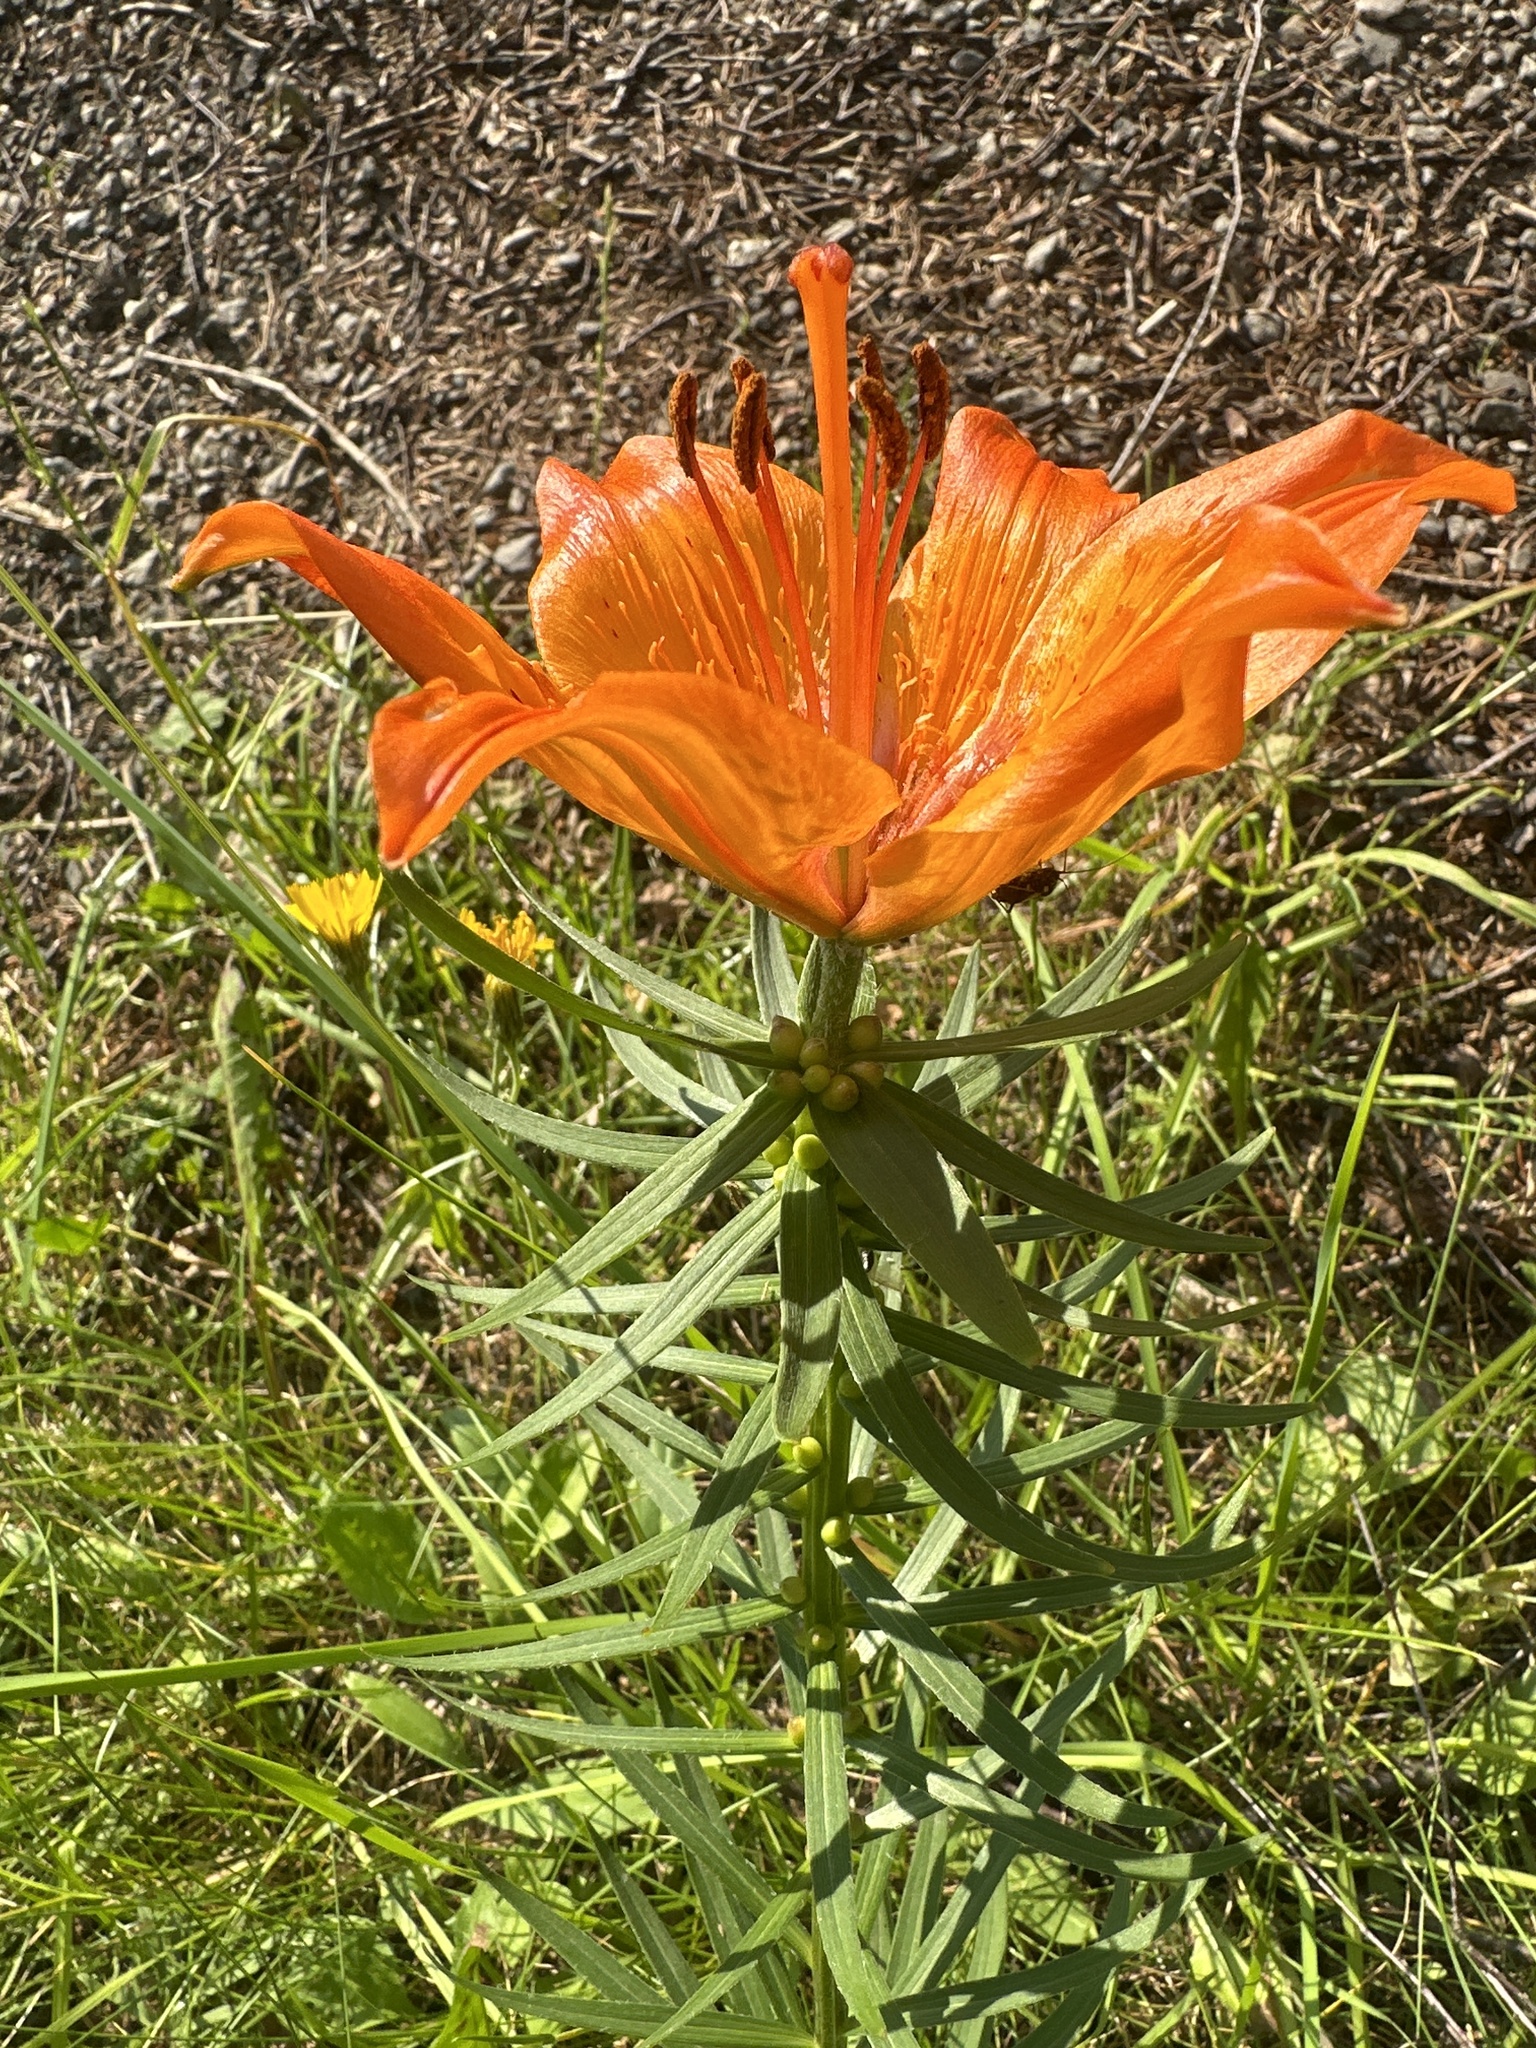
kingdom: Plantae
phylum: Tracheophyta
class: Liliopsida
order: Liliales
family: Liliaceae
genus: Lilium
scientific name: Lilium bulbiferum
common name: Orange lily
